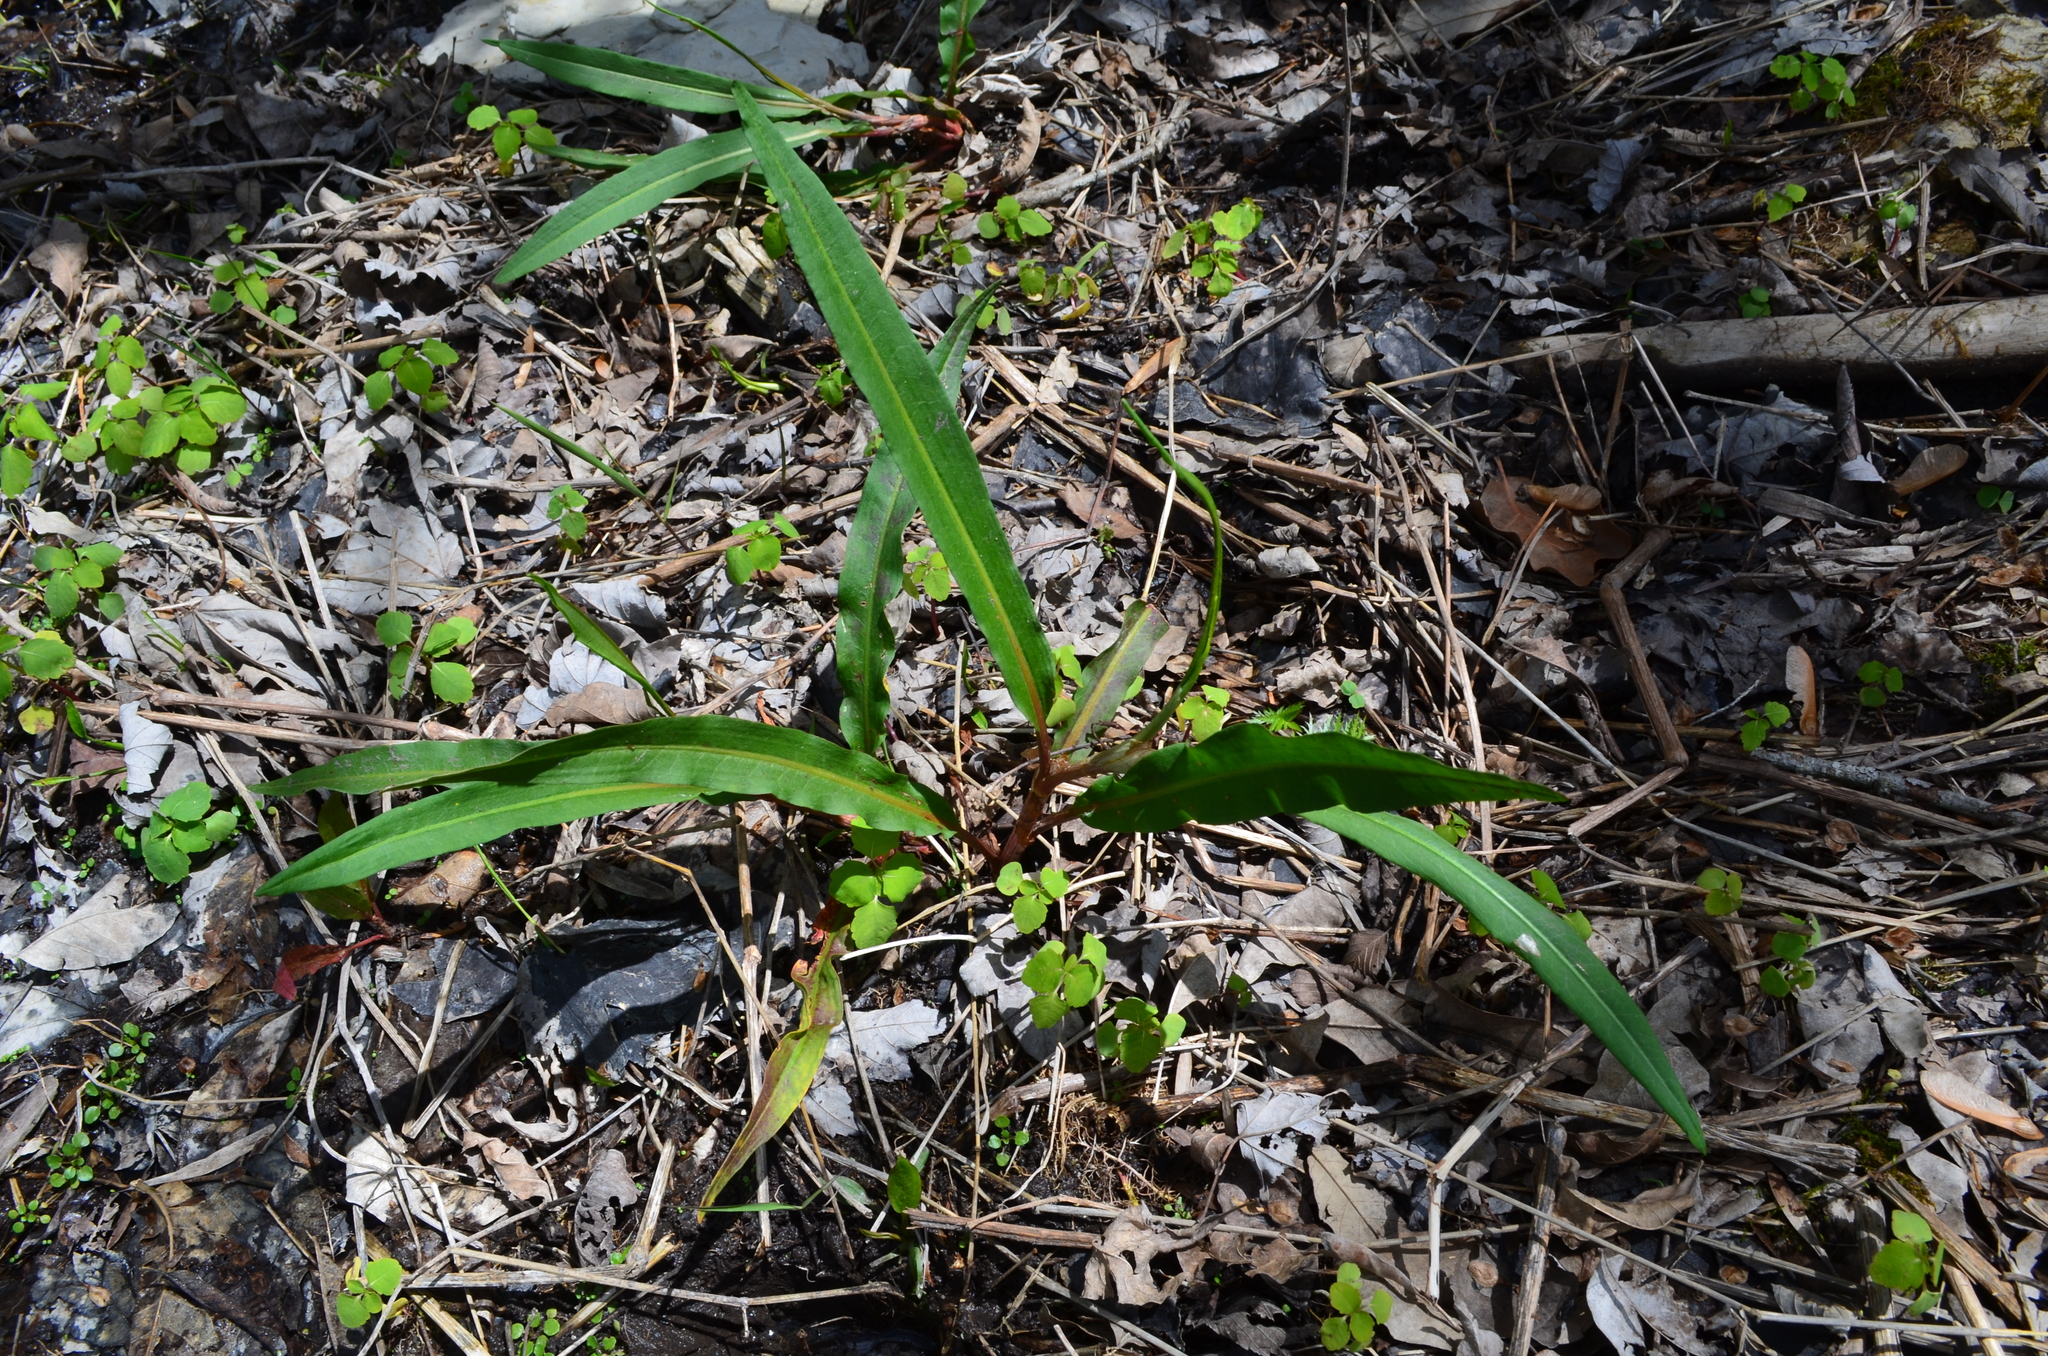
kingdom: Plantae
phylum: Tracheophyta
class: Magnoliopsida
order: Caryophyllales
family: Polygonaceae
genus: Rumex
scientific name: Rumex verticillatus
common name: Swamp dock
